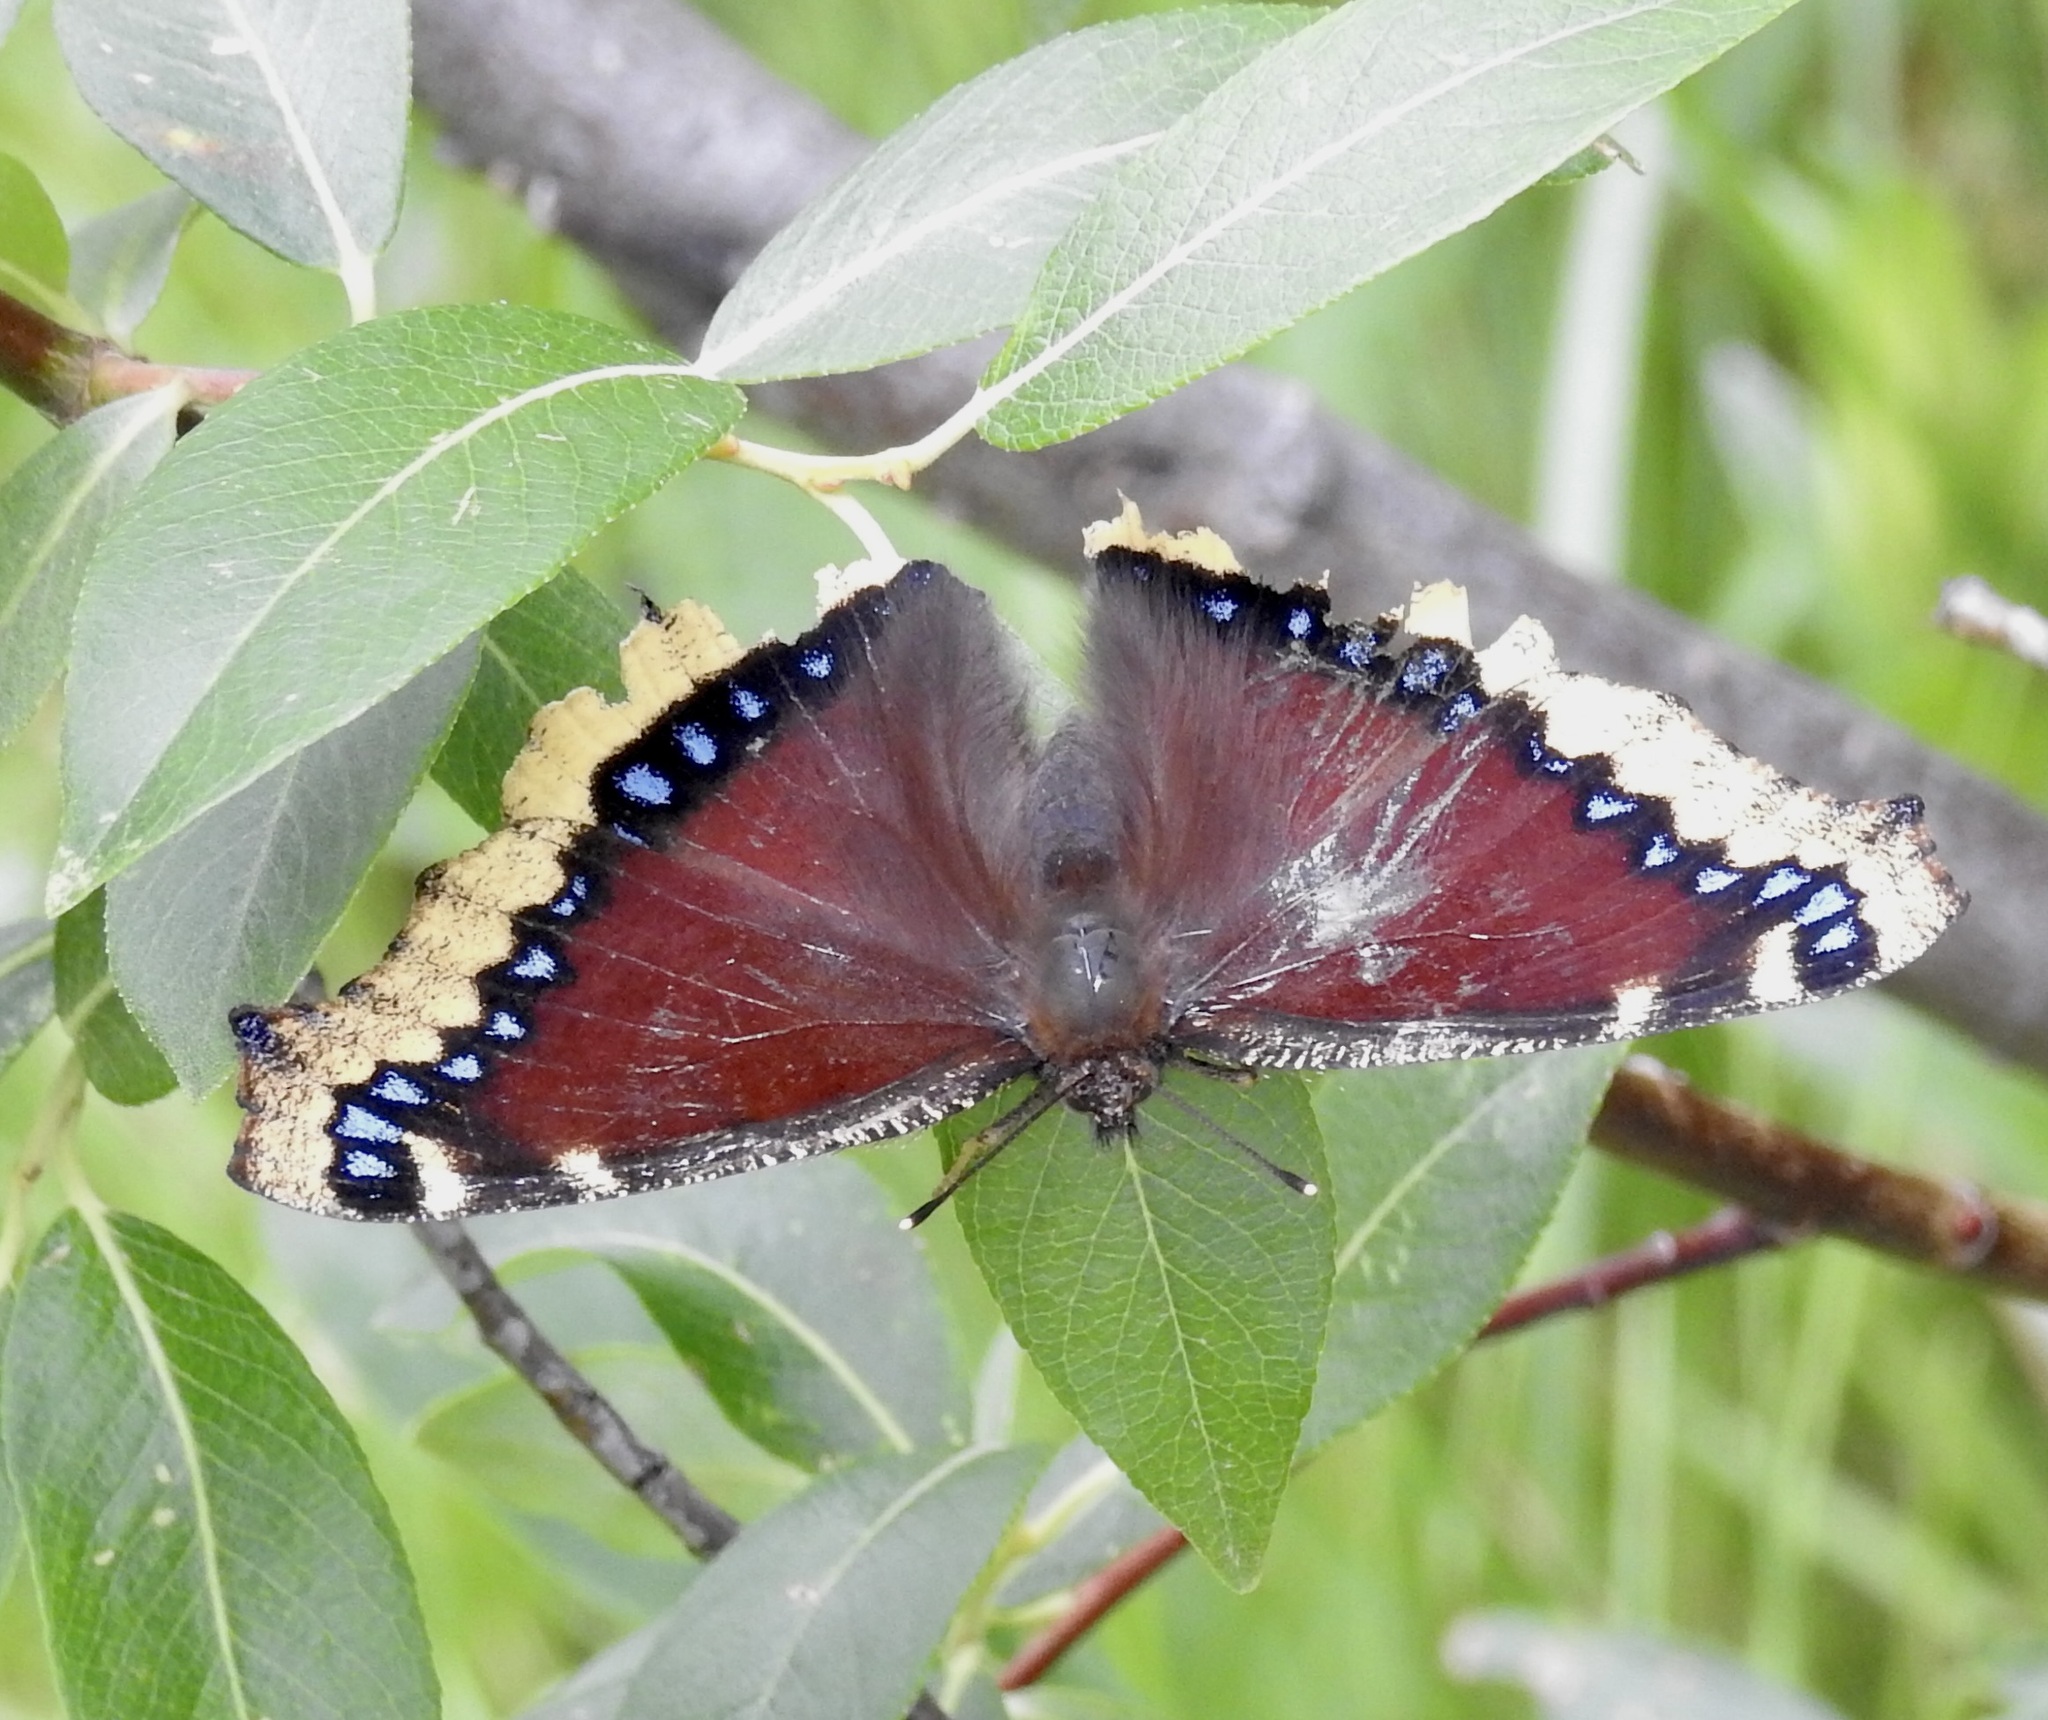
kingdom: Animalia
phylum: Arthropoda
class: Insecta
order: Lepidoptera
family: Nymphalidae
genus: Nymphalis
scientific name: Nymphalis antiopa
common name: Camberwell beauty
